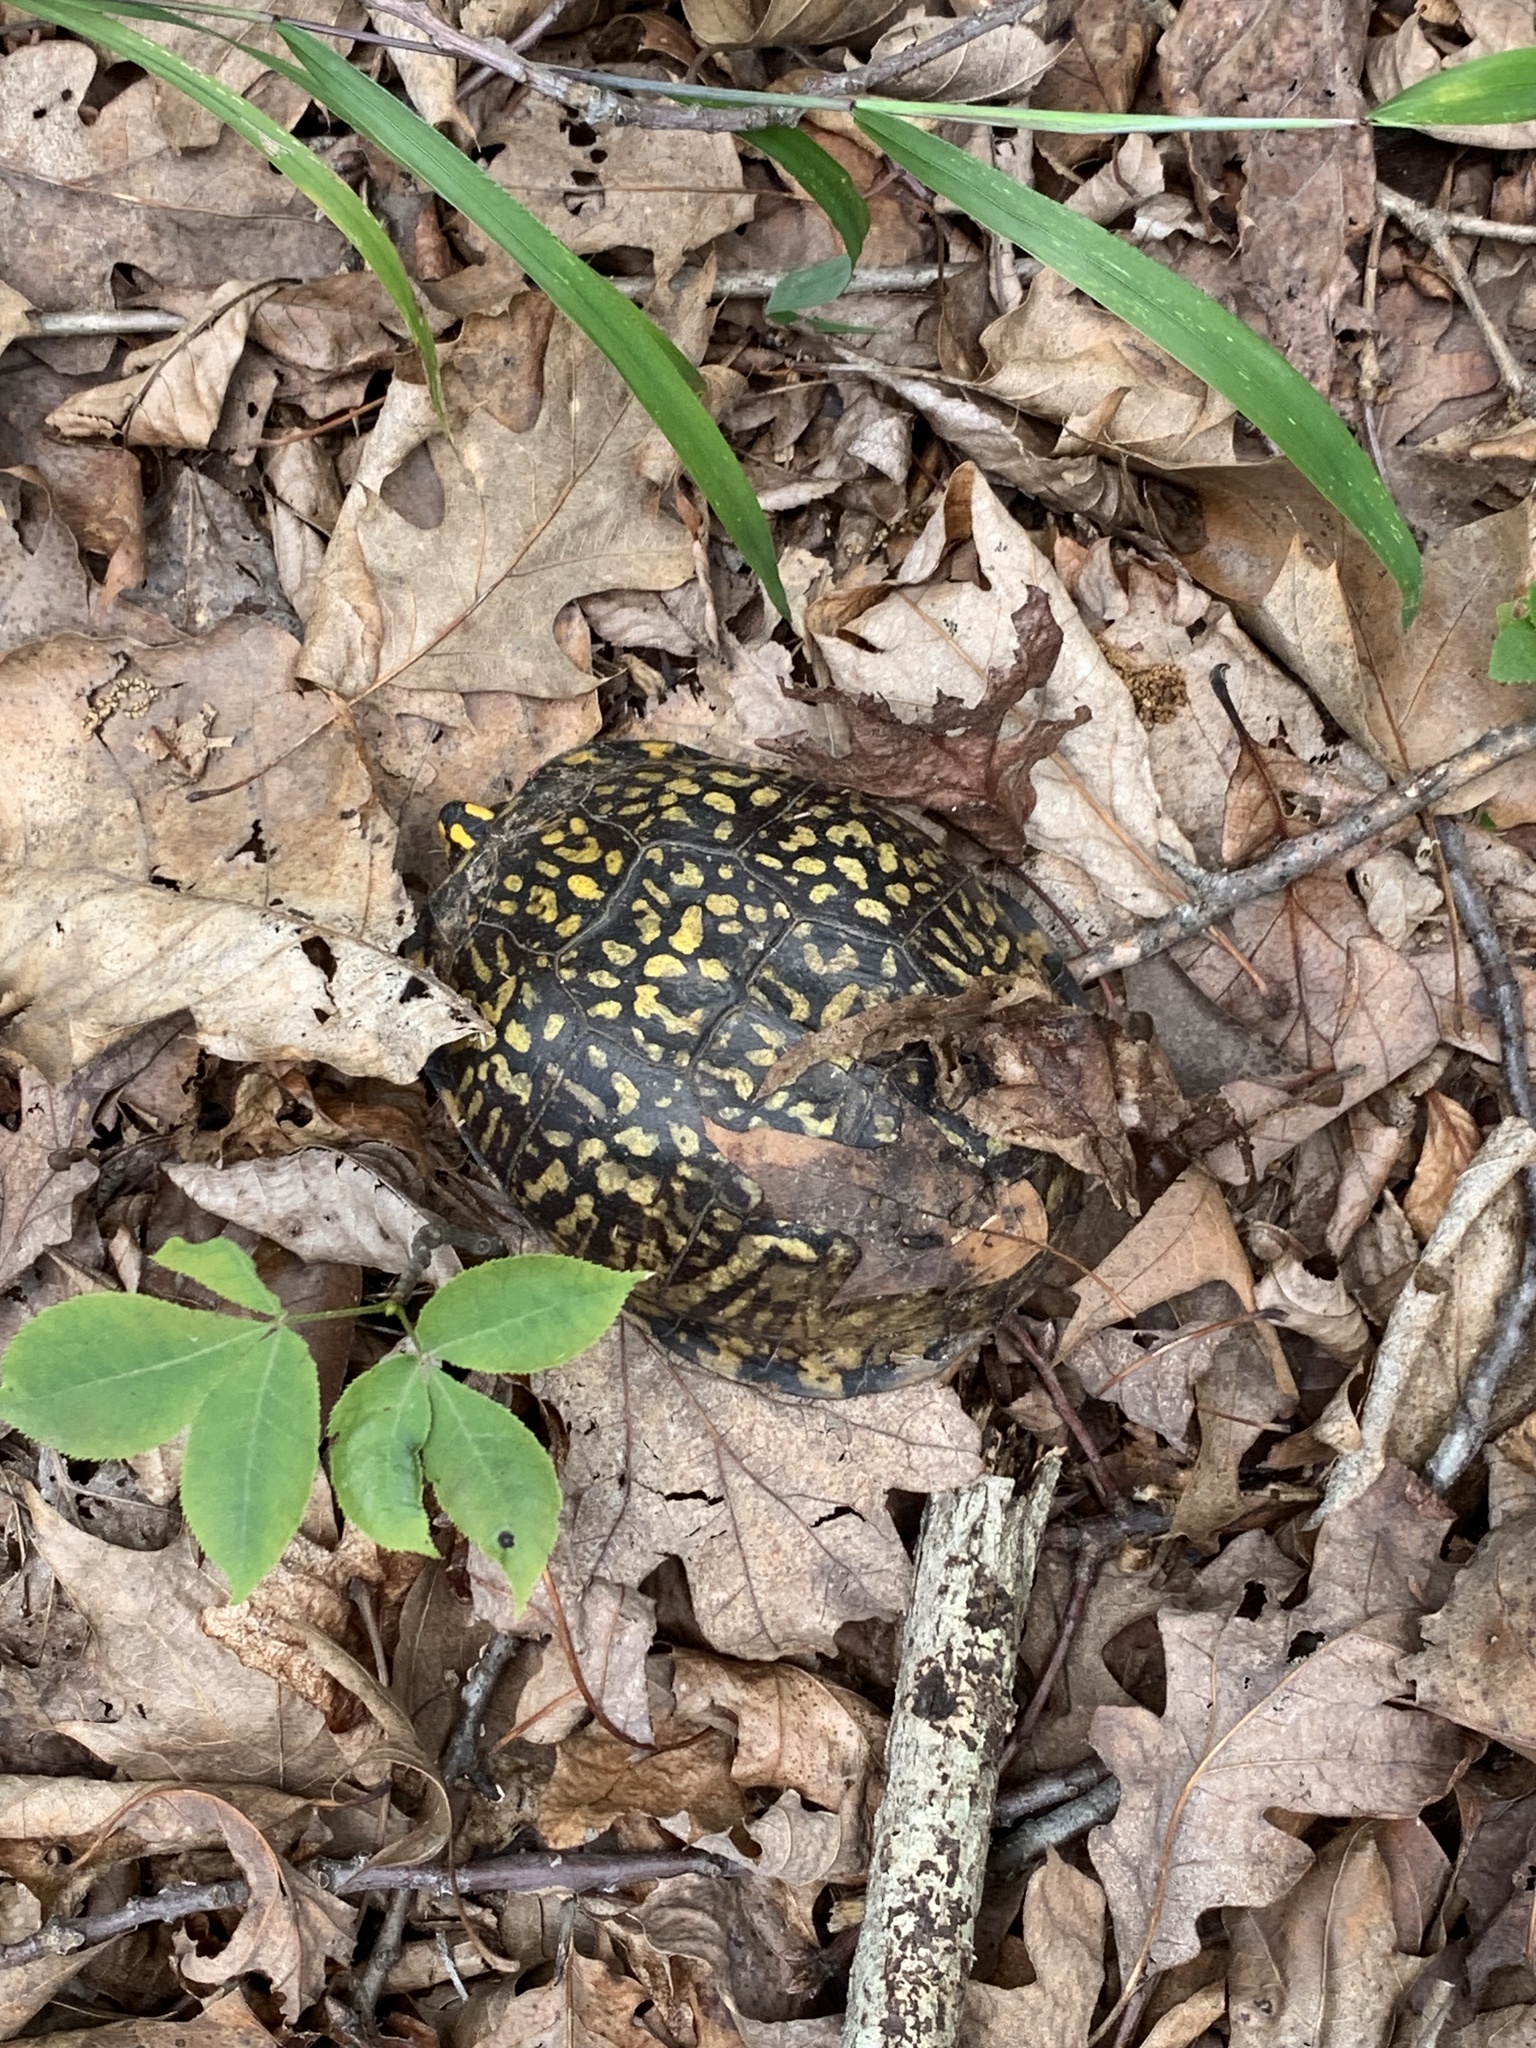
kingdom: Animalia
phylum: Chordata
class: Testudines
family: Emydidae
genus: Terrapene
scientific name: Terrapene carolina
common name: Common box turtle
